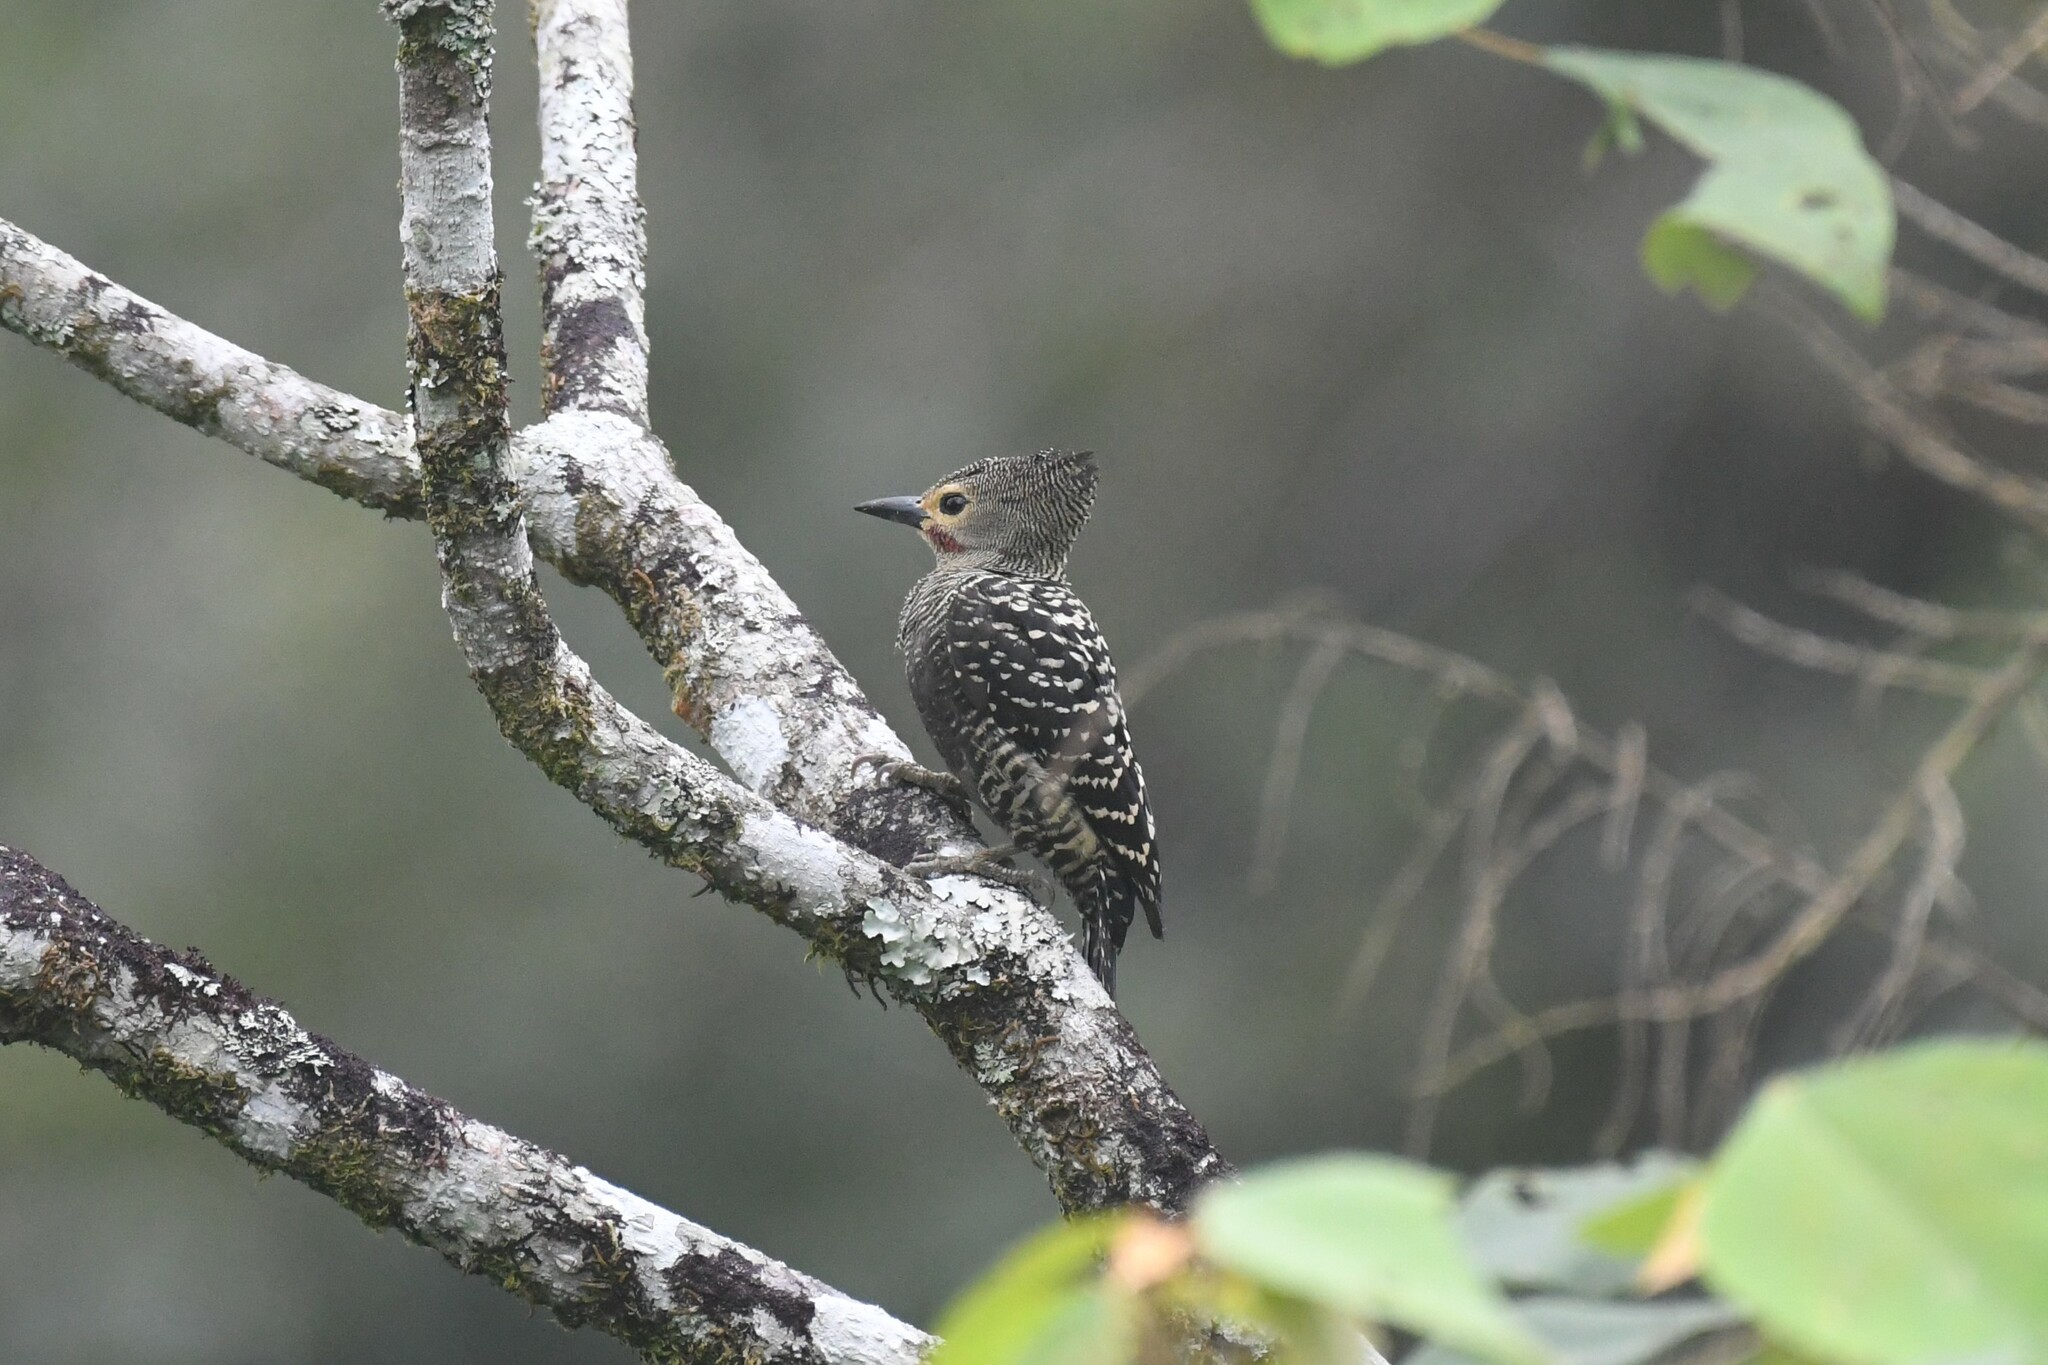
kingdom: Animalia
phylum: Chordata
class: Aves
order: Piciformes
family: Picidae
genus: Meiglyptes
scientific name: Meiglyptes tristis
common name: Buff-rumped woodpecker
